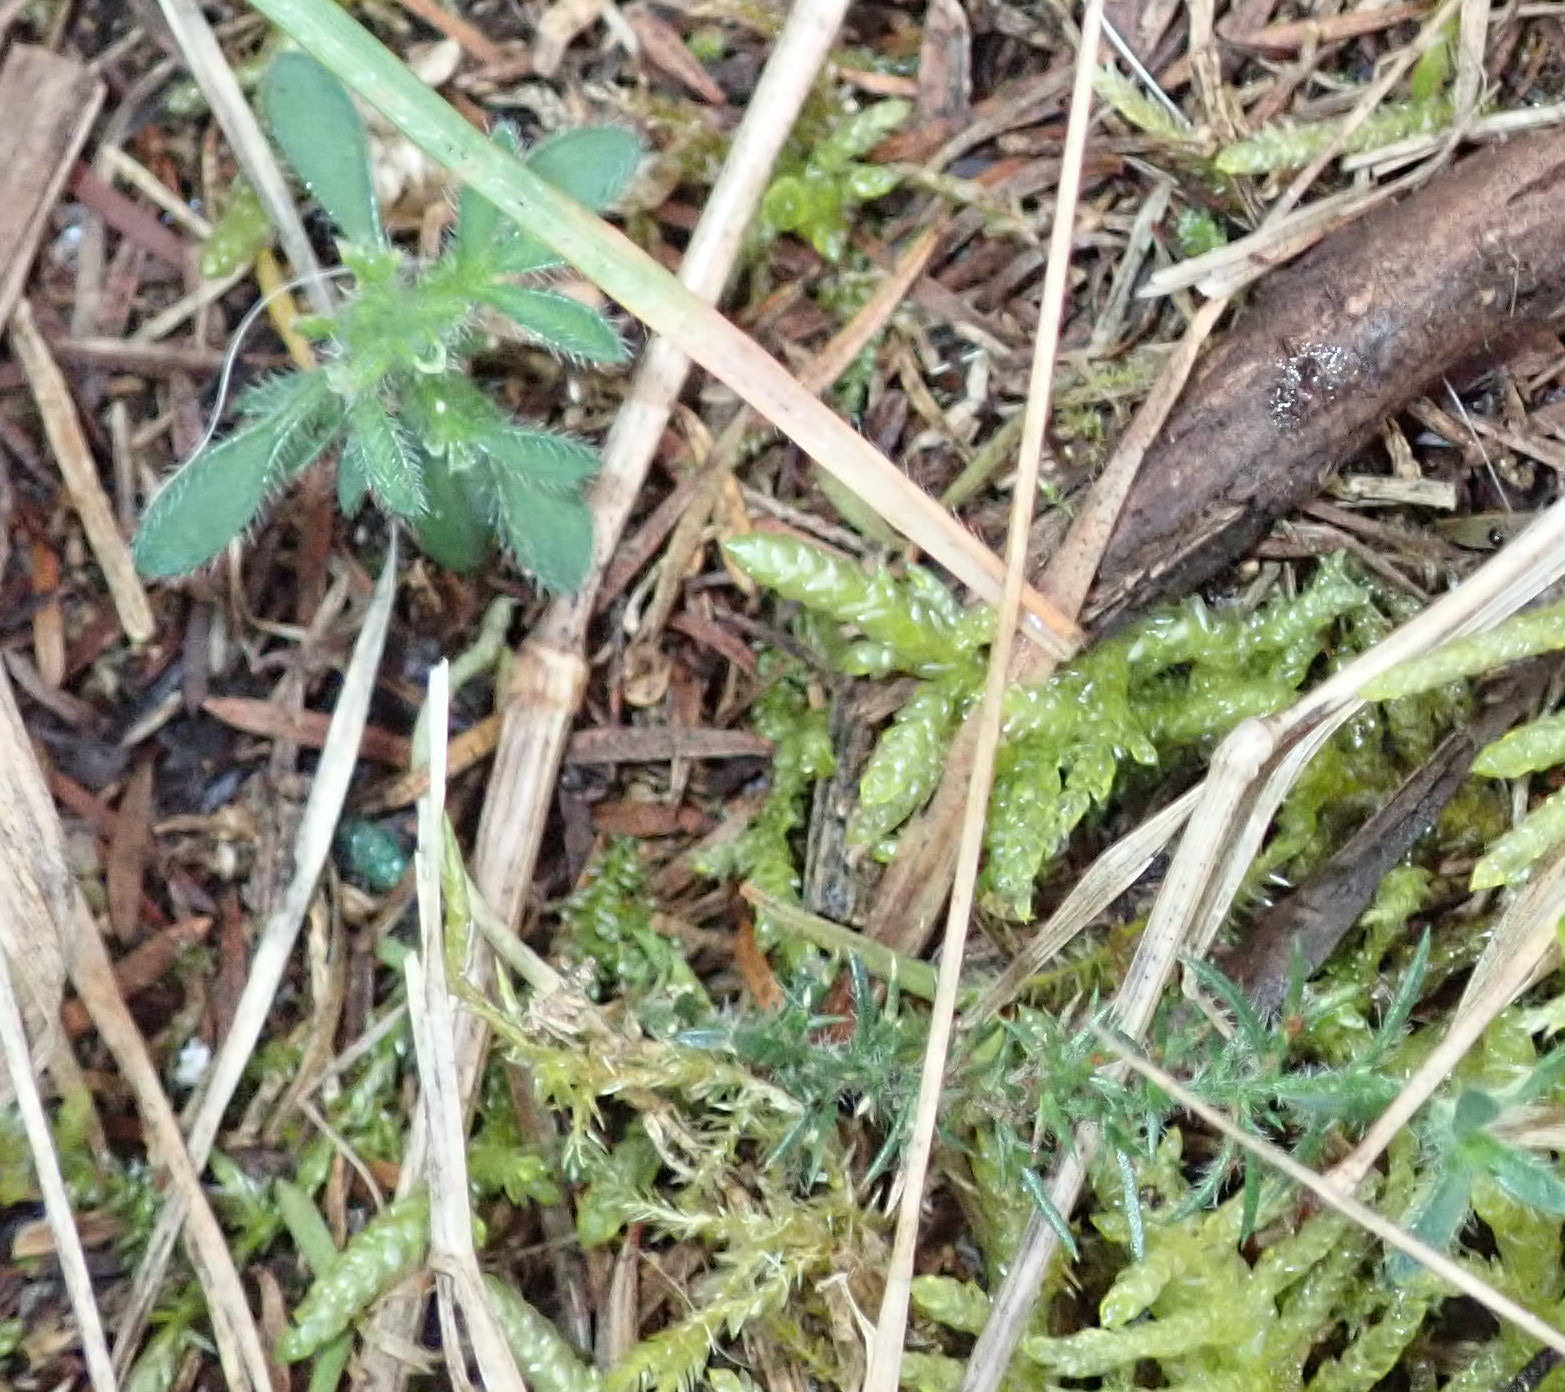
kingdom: Plantae
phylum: Tracheophyta
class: Magnoliopsida
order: Fabales
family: Fabaceae
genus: Ulex
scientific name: Ulex europaeus
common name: Common gorse
